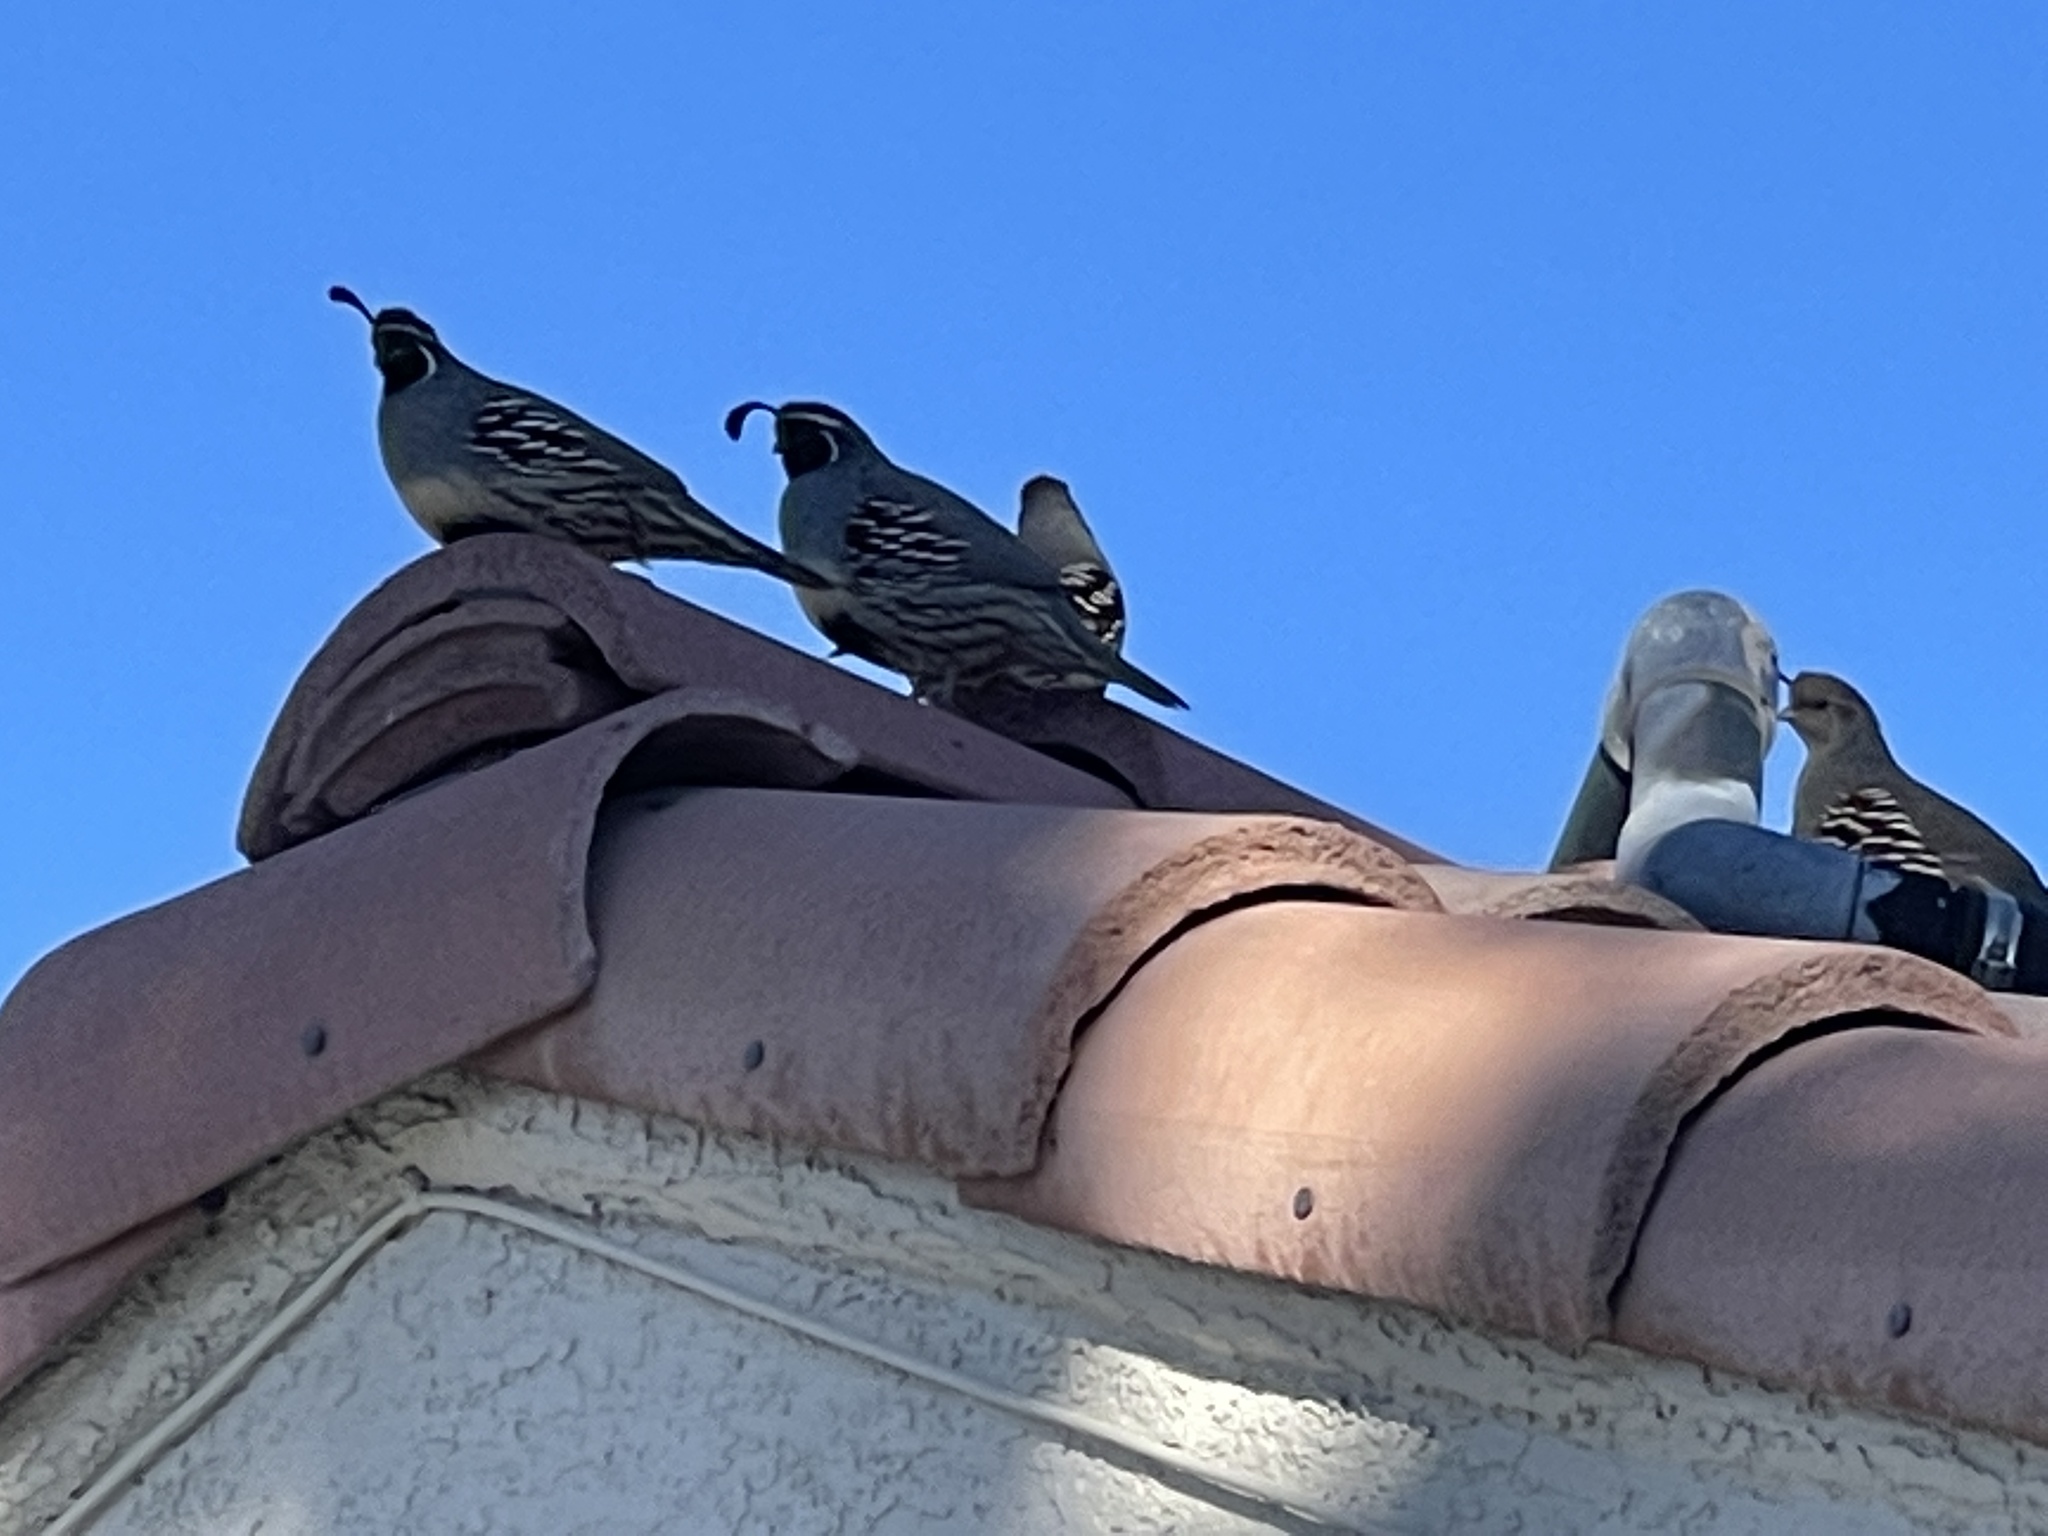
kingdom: Animalia
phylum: Chordata
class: Aves
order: Galliformes
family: Odontophoridae
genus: Callipepla
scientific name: Callipepla gambelii
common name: Gambel's quail
